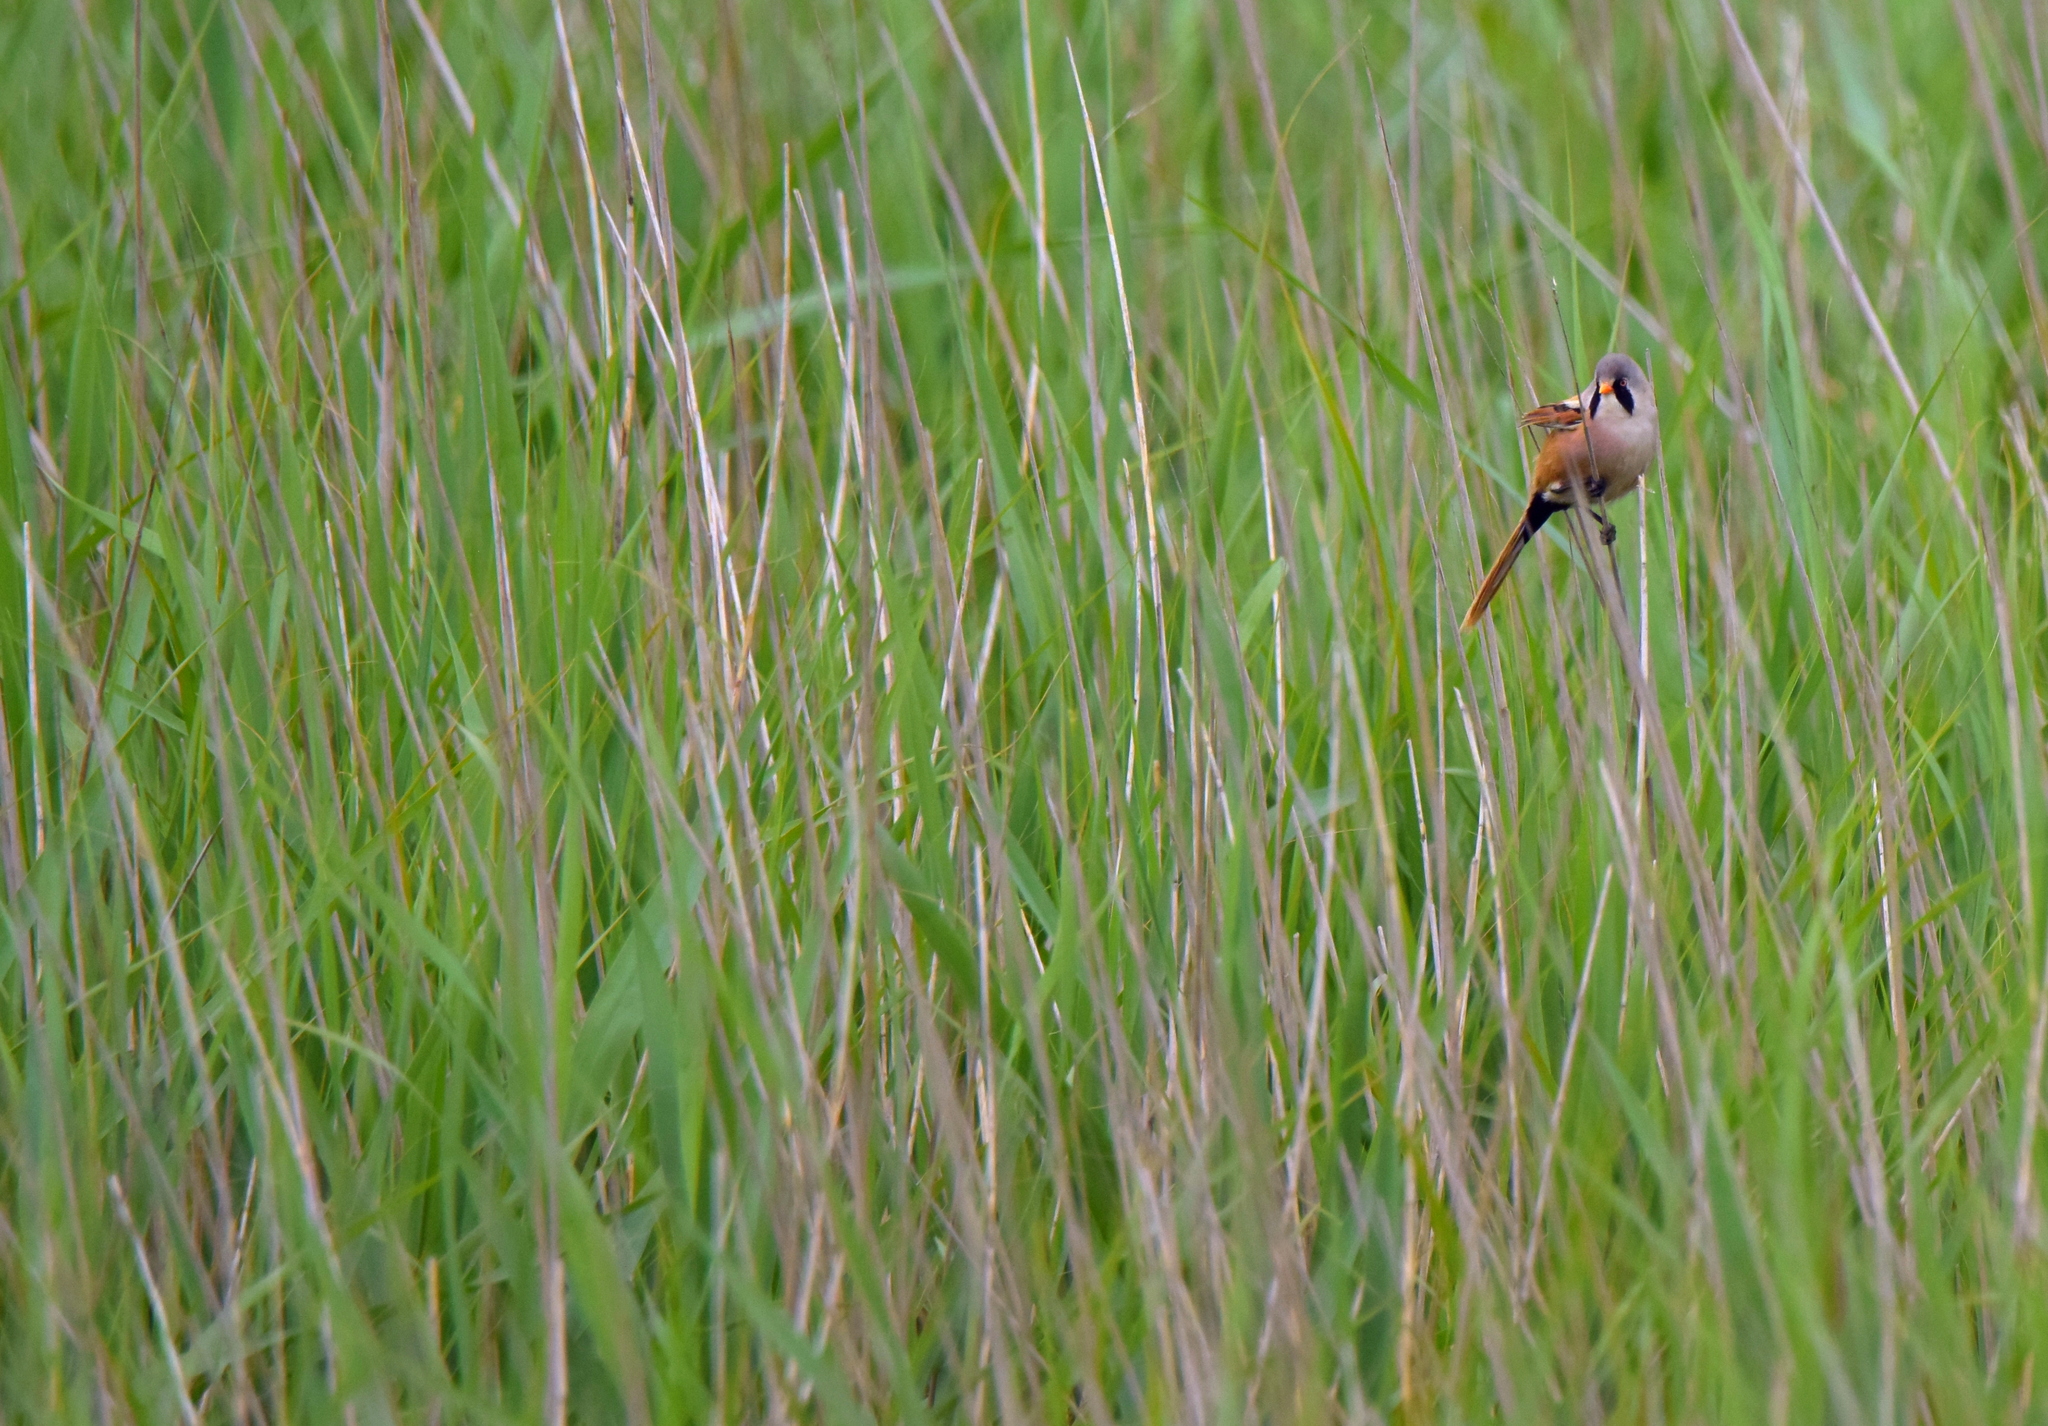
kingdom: Animalia
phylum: Chordata
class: Aves
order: Passeriformes
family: Panuridae
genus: Panurus
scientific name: Panurus biarmicus
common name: Bearded reedling
